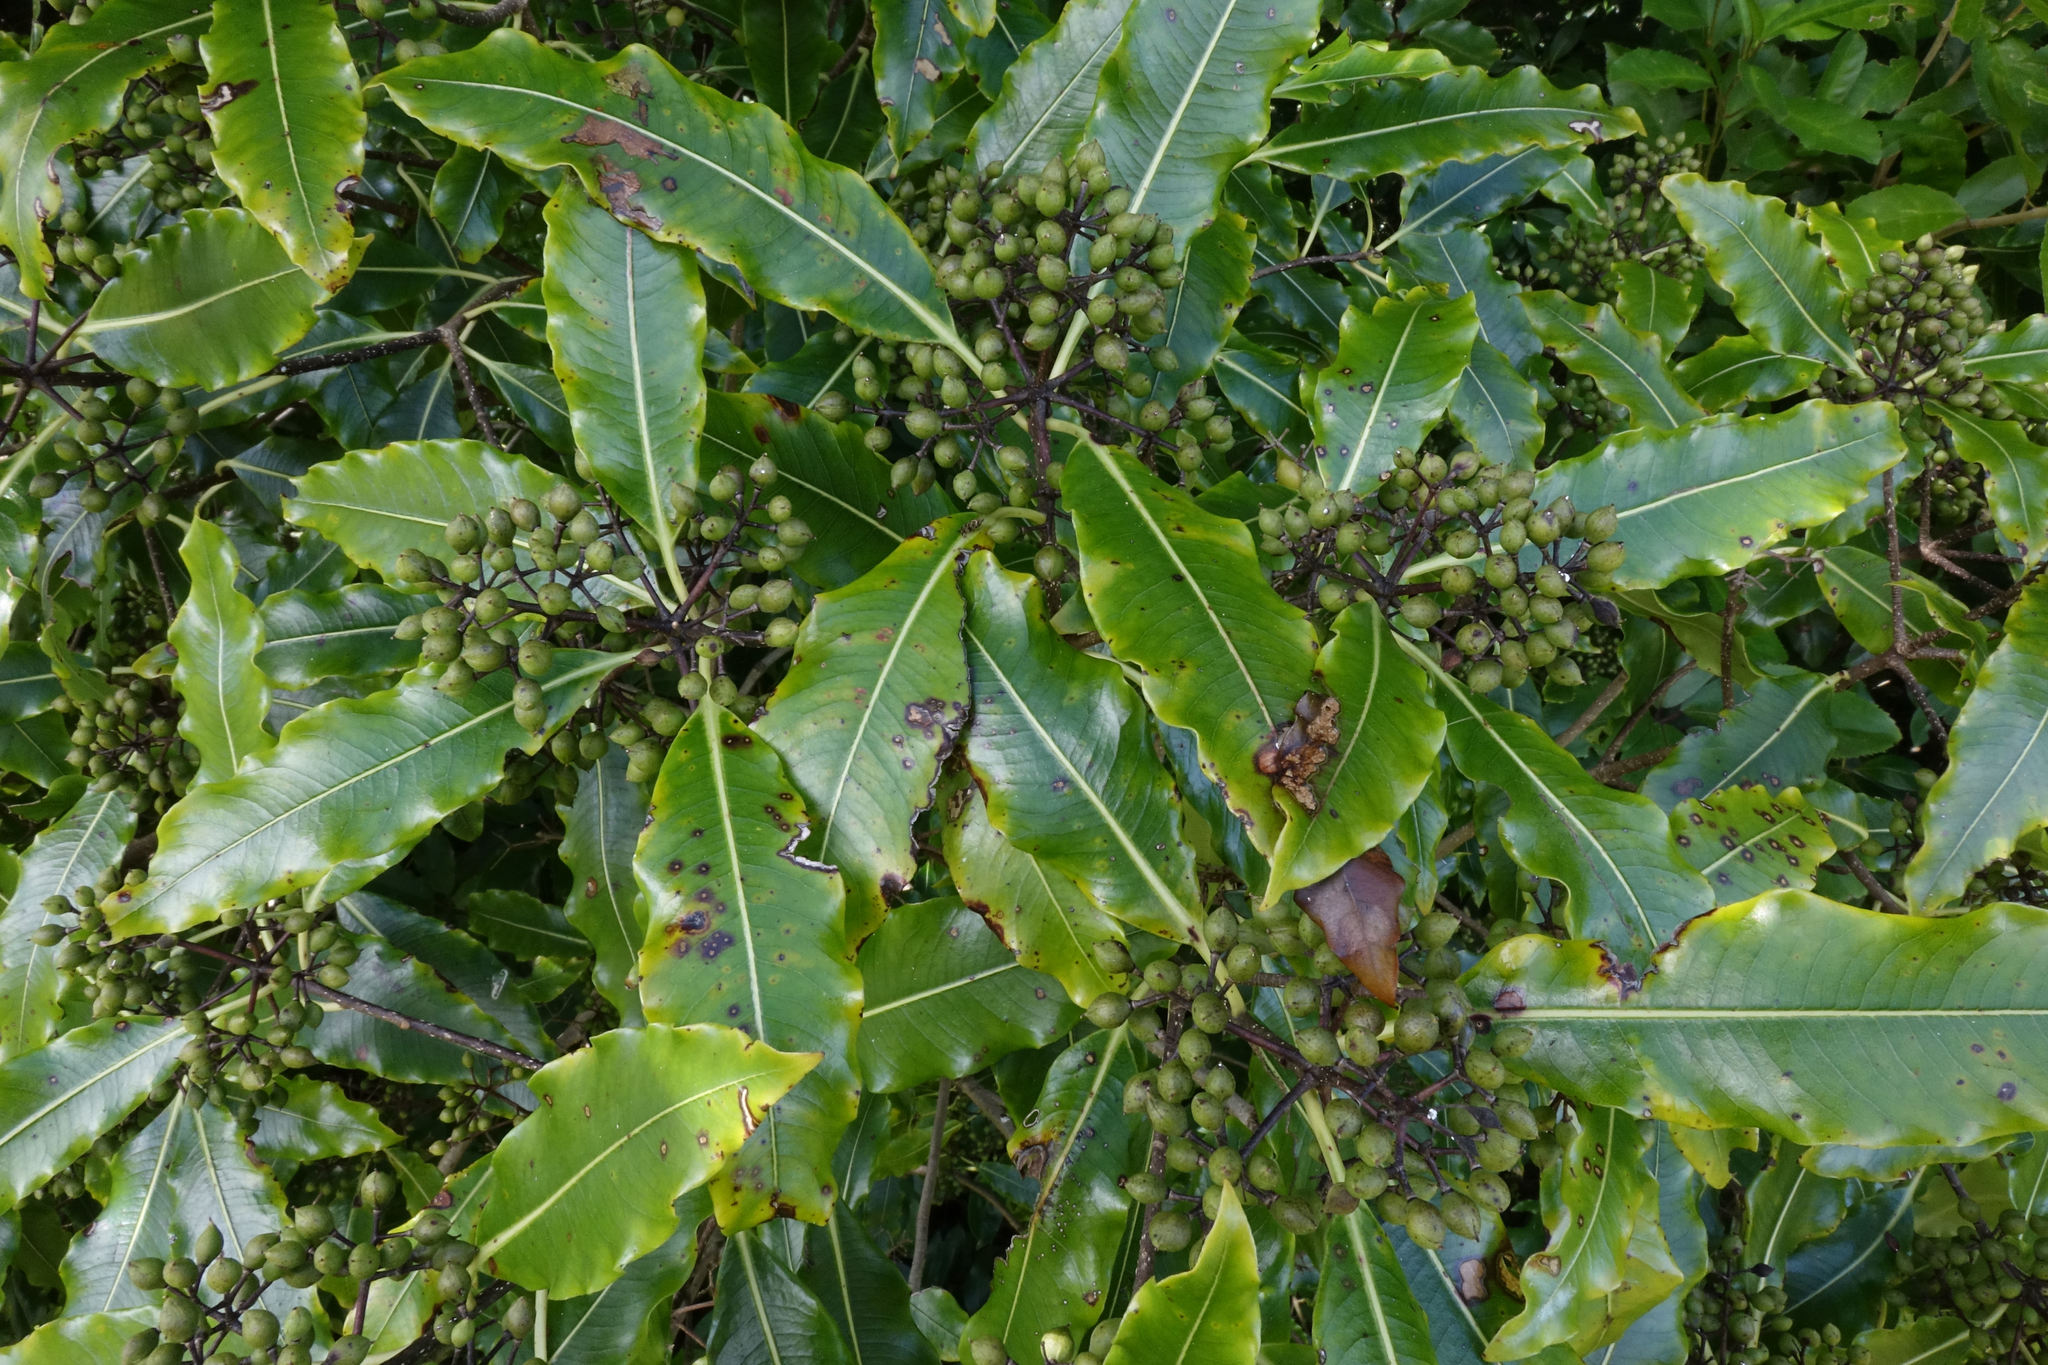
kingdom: Plantae
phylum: Tracheophyta
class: Magnoliopsida
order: Apiales
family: Pittosporaceae
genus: Pittosporum
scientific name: Pittosporum eugenioides
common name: Lemonwood
